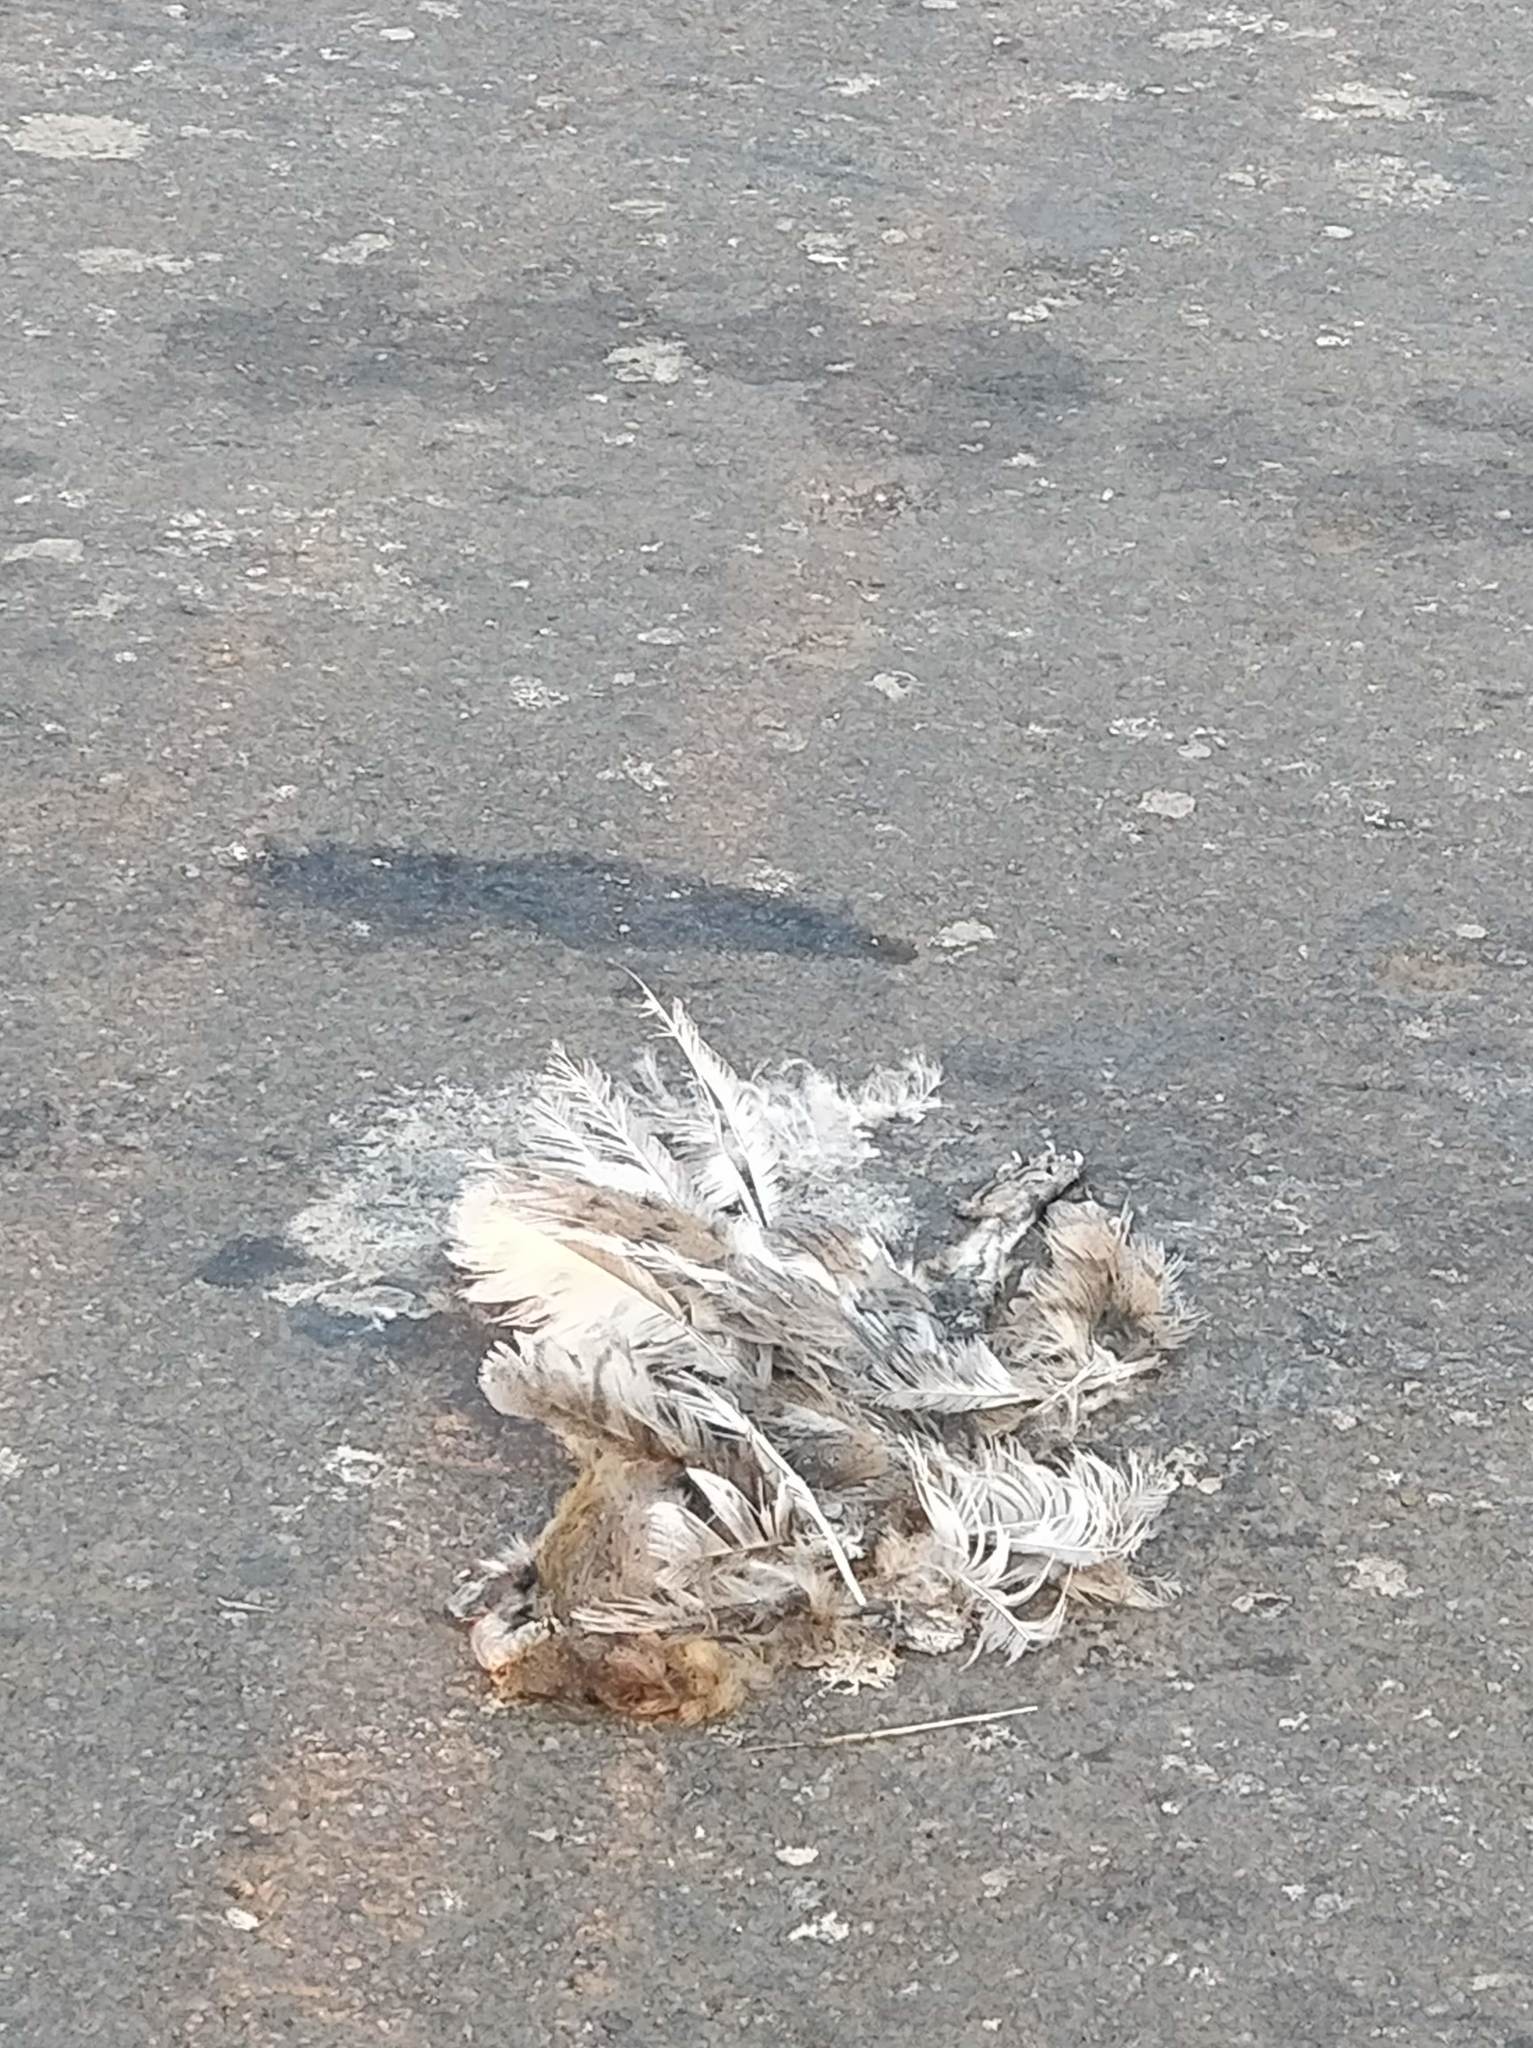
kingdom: Animalia
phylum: Chordata
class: Aves
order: Strigiformes
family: Tytonidae
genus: Tyto
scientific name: Tyto alba
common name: Barn owl
